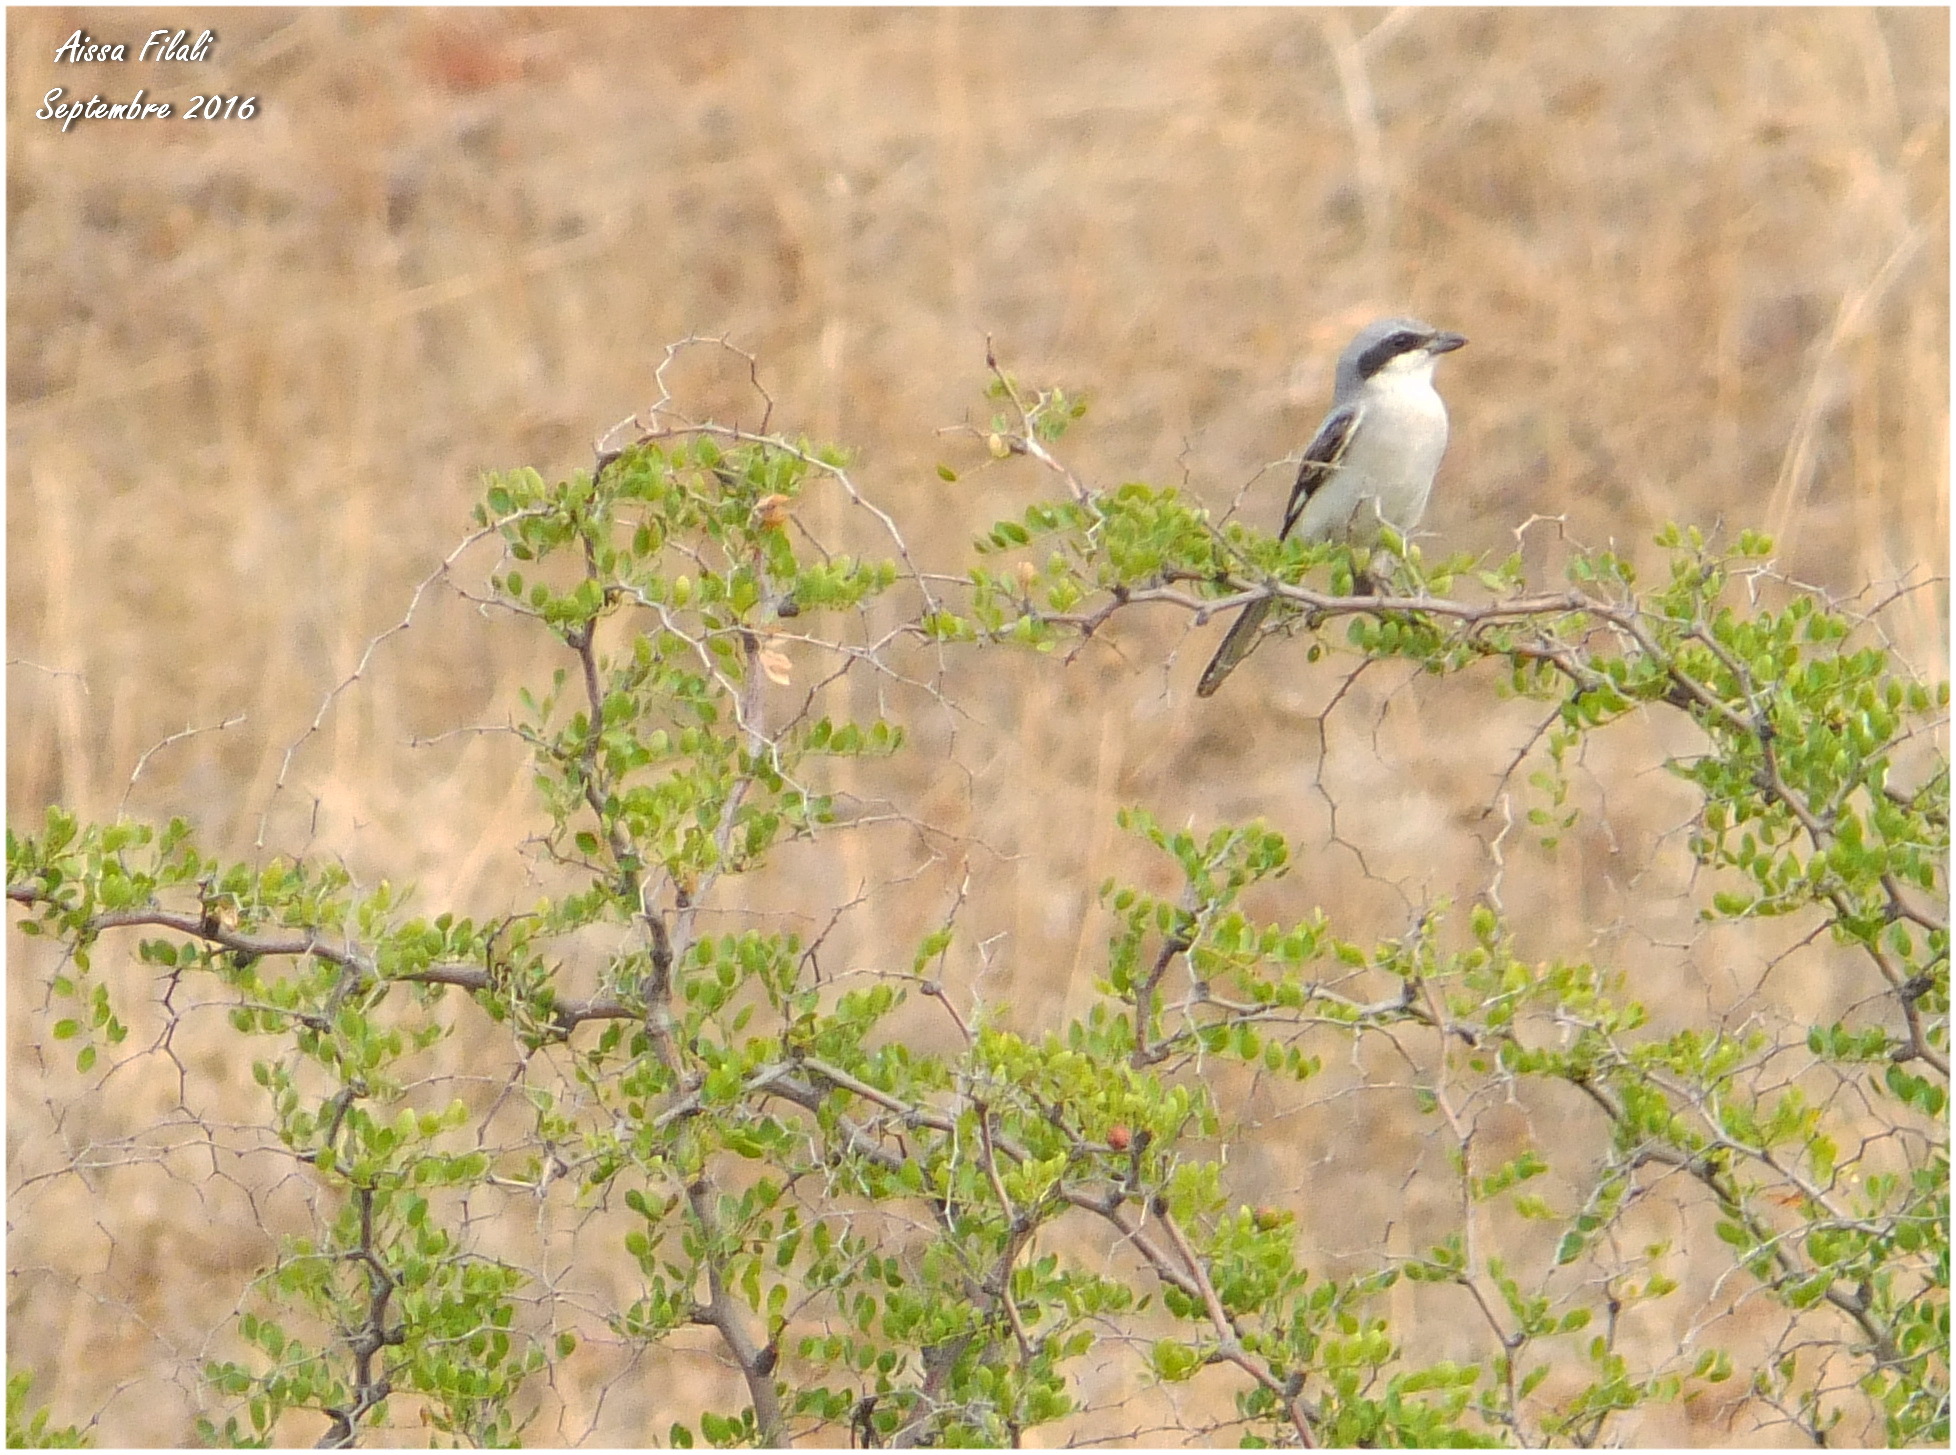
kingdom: Animalia
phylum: Chordata
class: Aves
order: Passeriformes
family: Laniidae
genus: Lanius
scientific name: Lanius excubitor
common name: Great grey shrike
